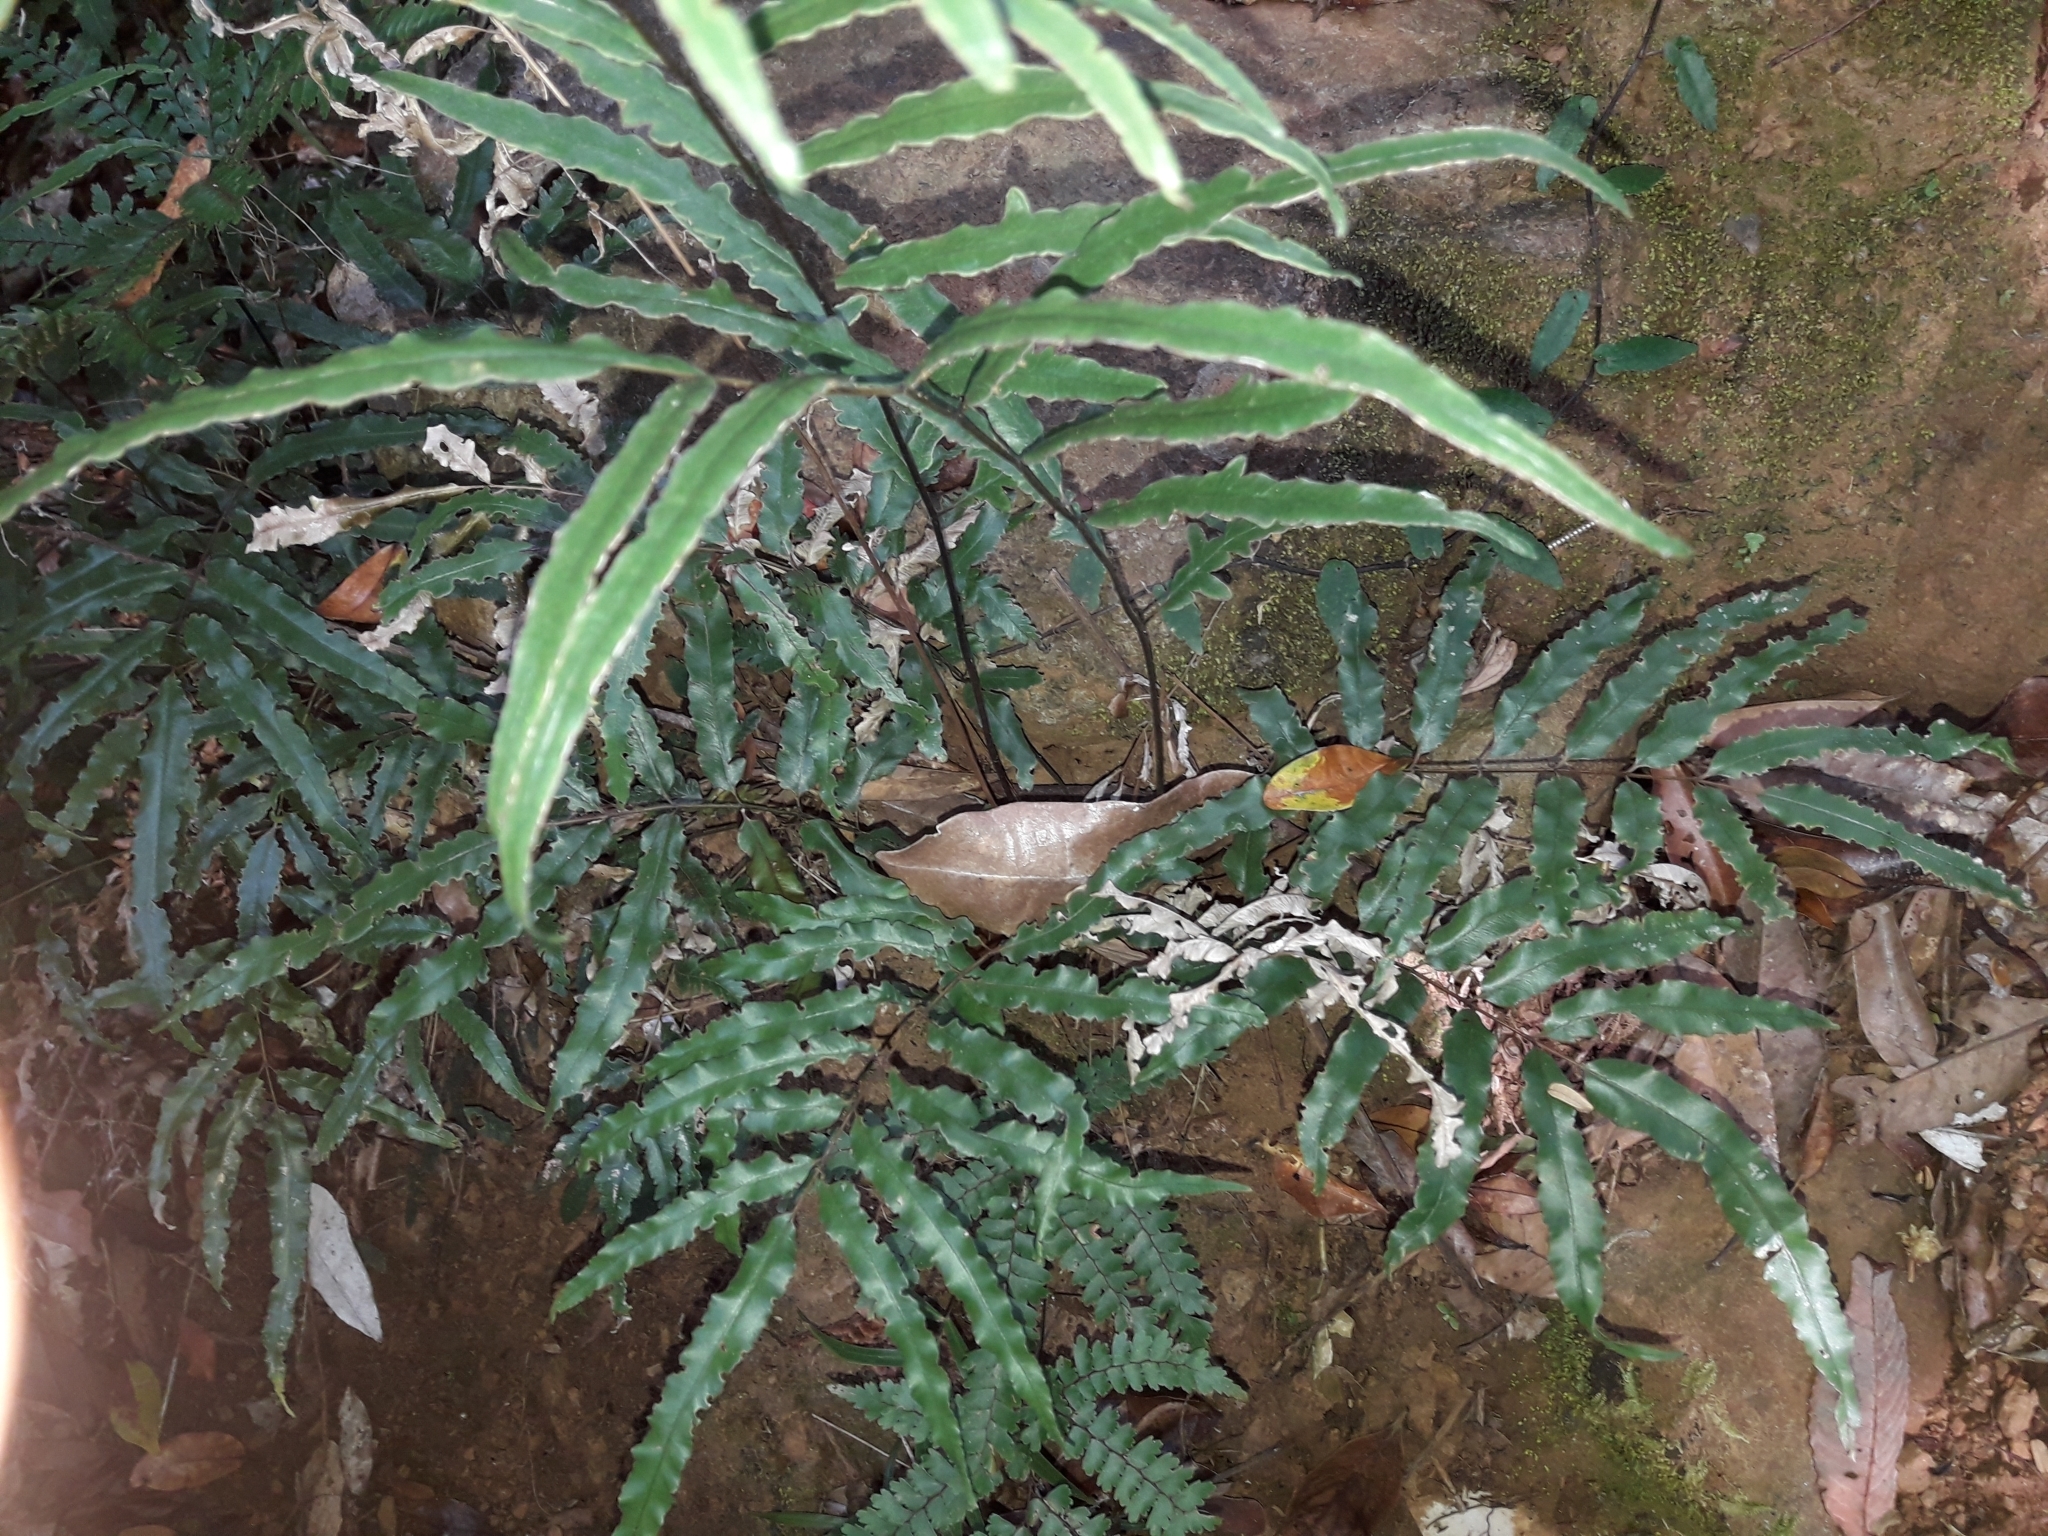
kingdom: Plantae
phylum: Tracheophyta
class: Polypodiopsida
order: Polypodiales
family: Pteridaceae
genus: Pteris
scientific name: Pteris balansae
